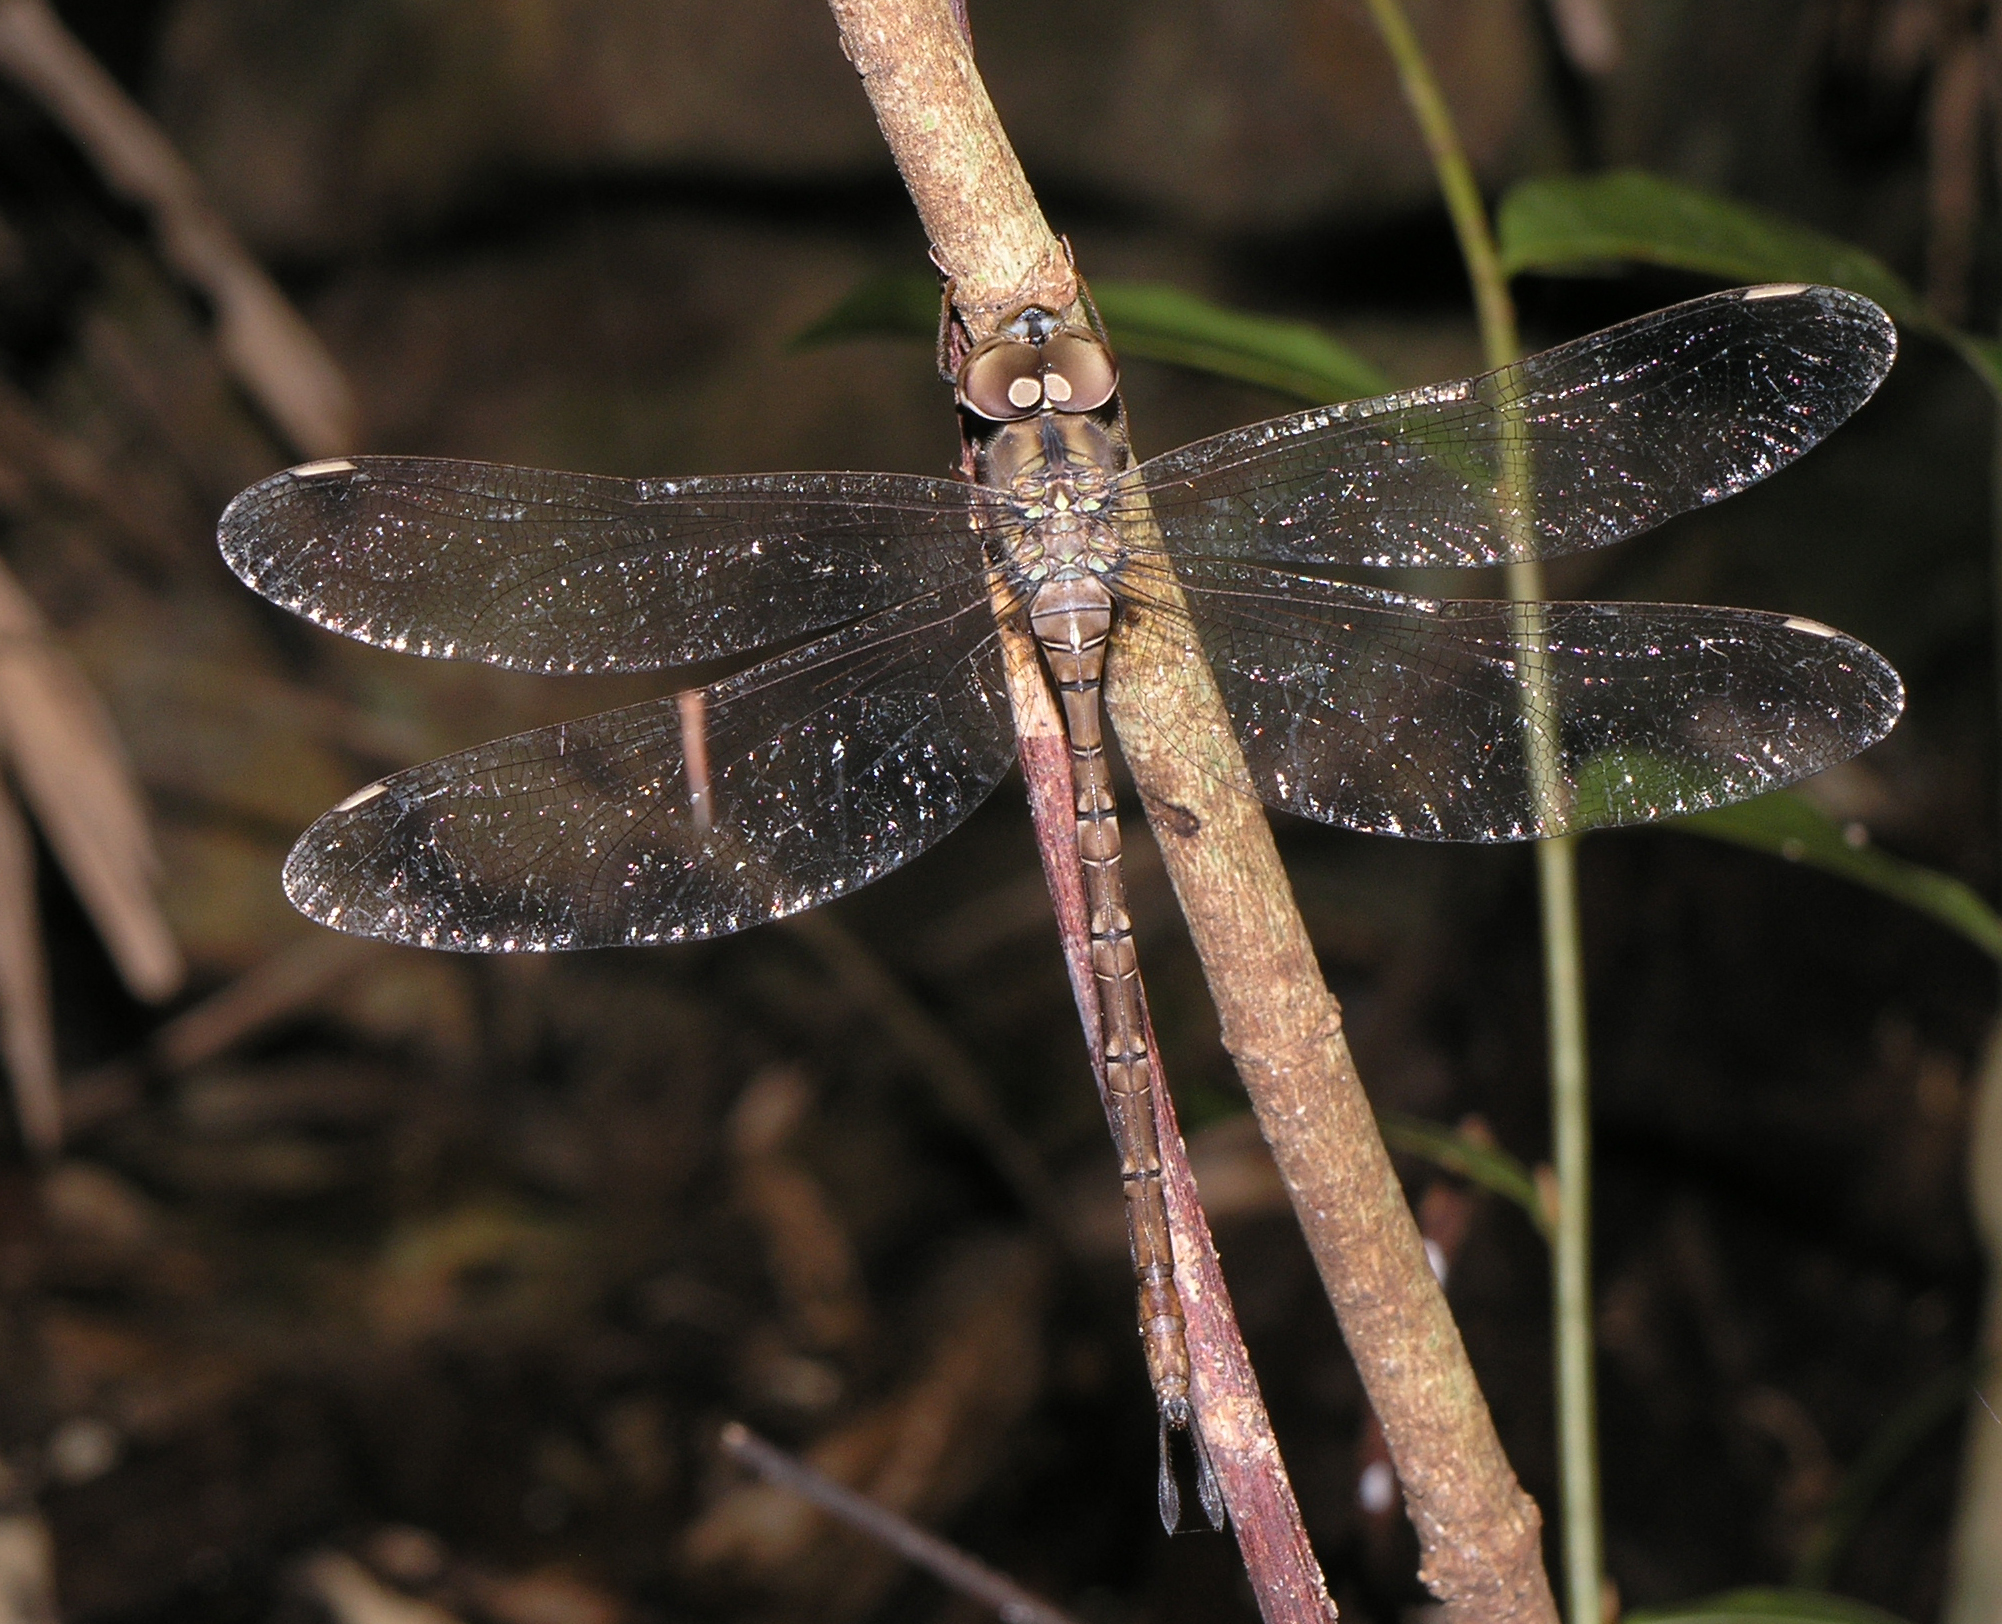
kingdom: Animalia
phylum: Arthropoda
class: Insecta
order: Odonata
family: Aeshnidae
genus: Gynacantha
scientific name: Gynacantha subinterrupta
